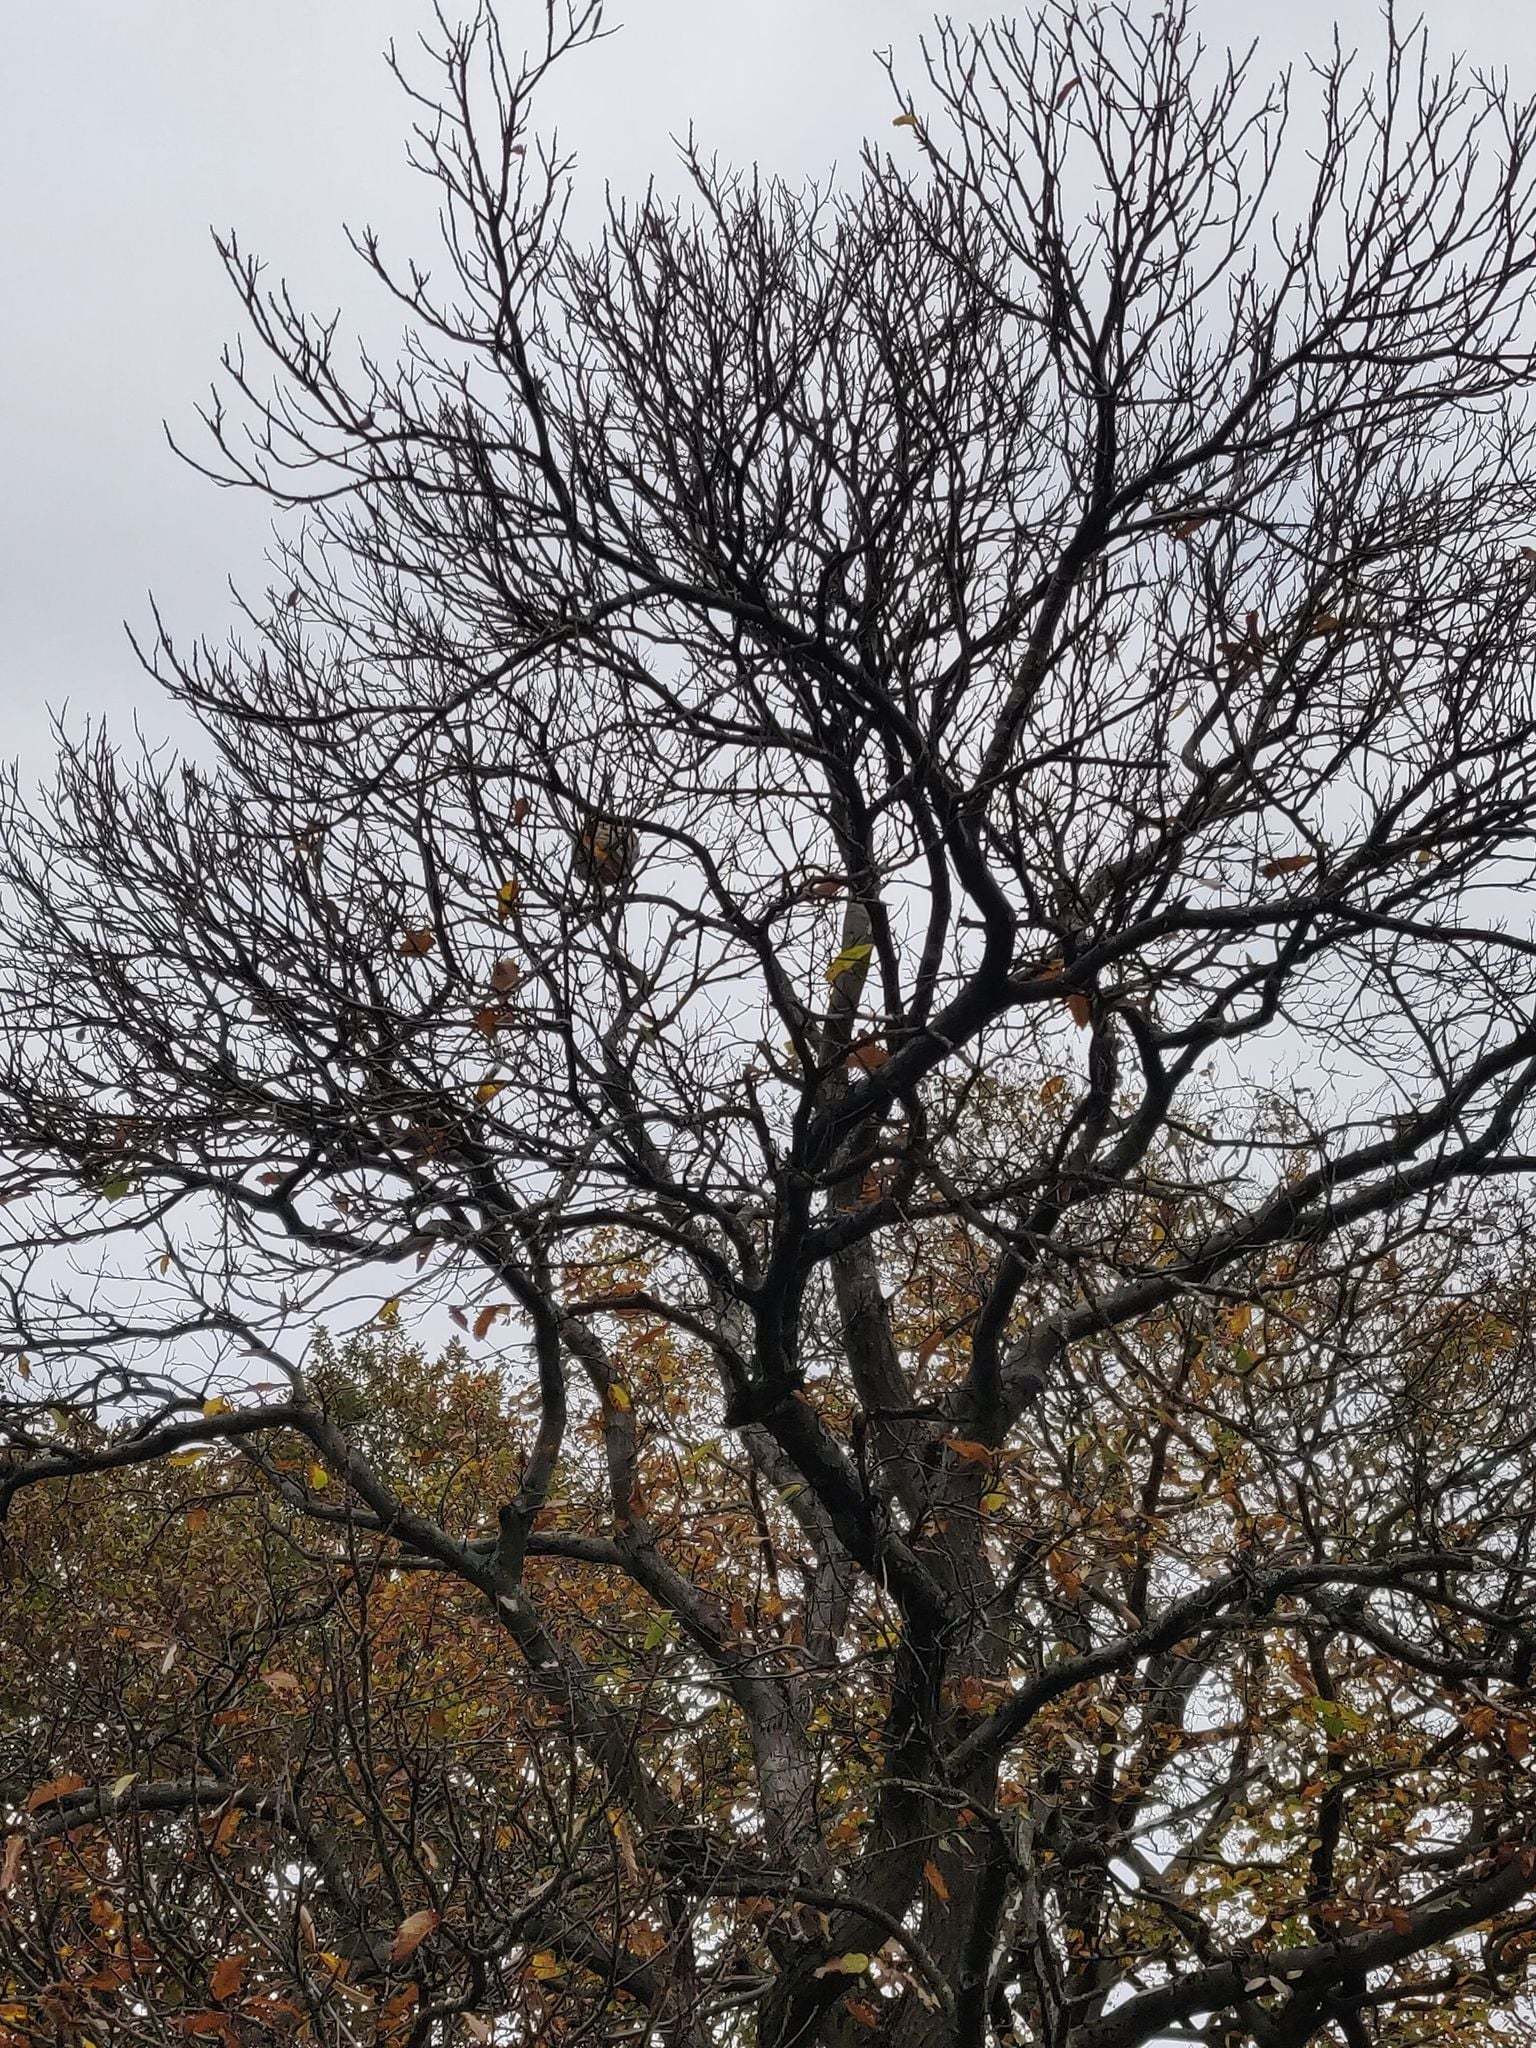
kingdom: Animalia
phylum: Arthropoda
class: Insecta
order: Hymenoptera
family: Vespidae
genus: Vespa
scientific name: Vespa velutina
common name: Asian hornet
